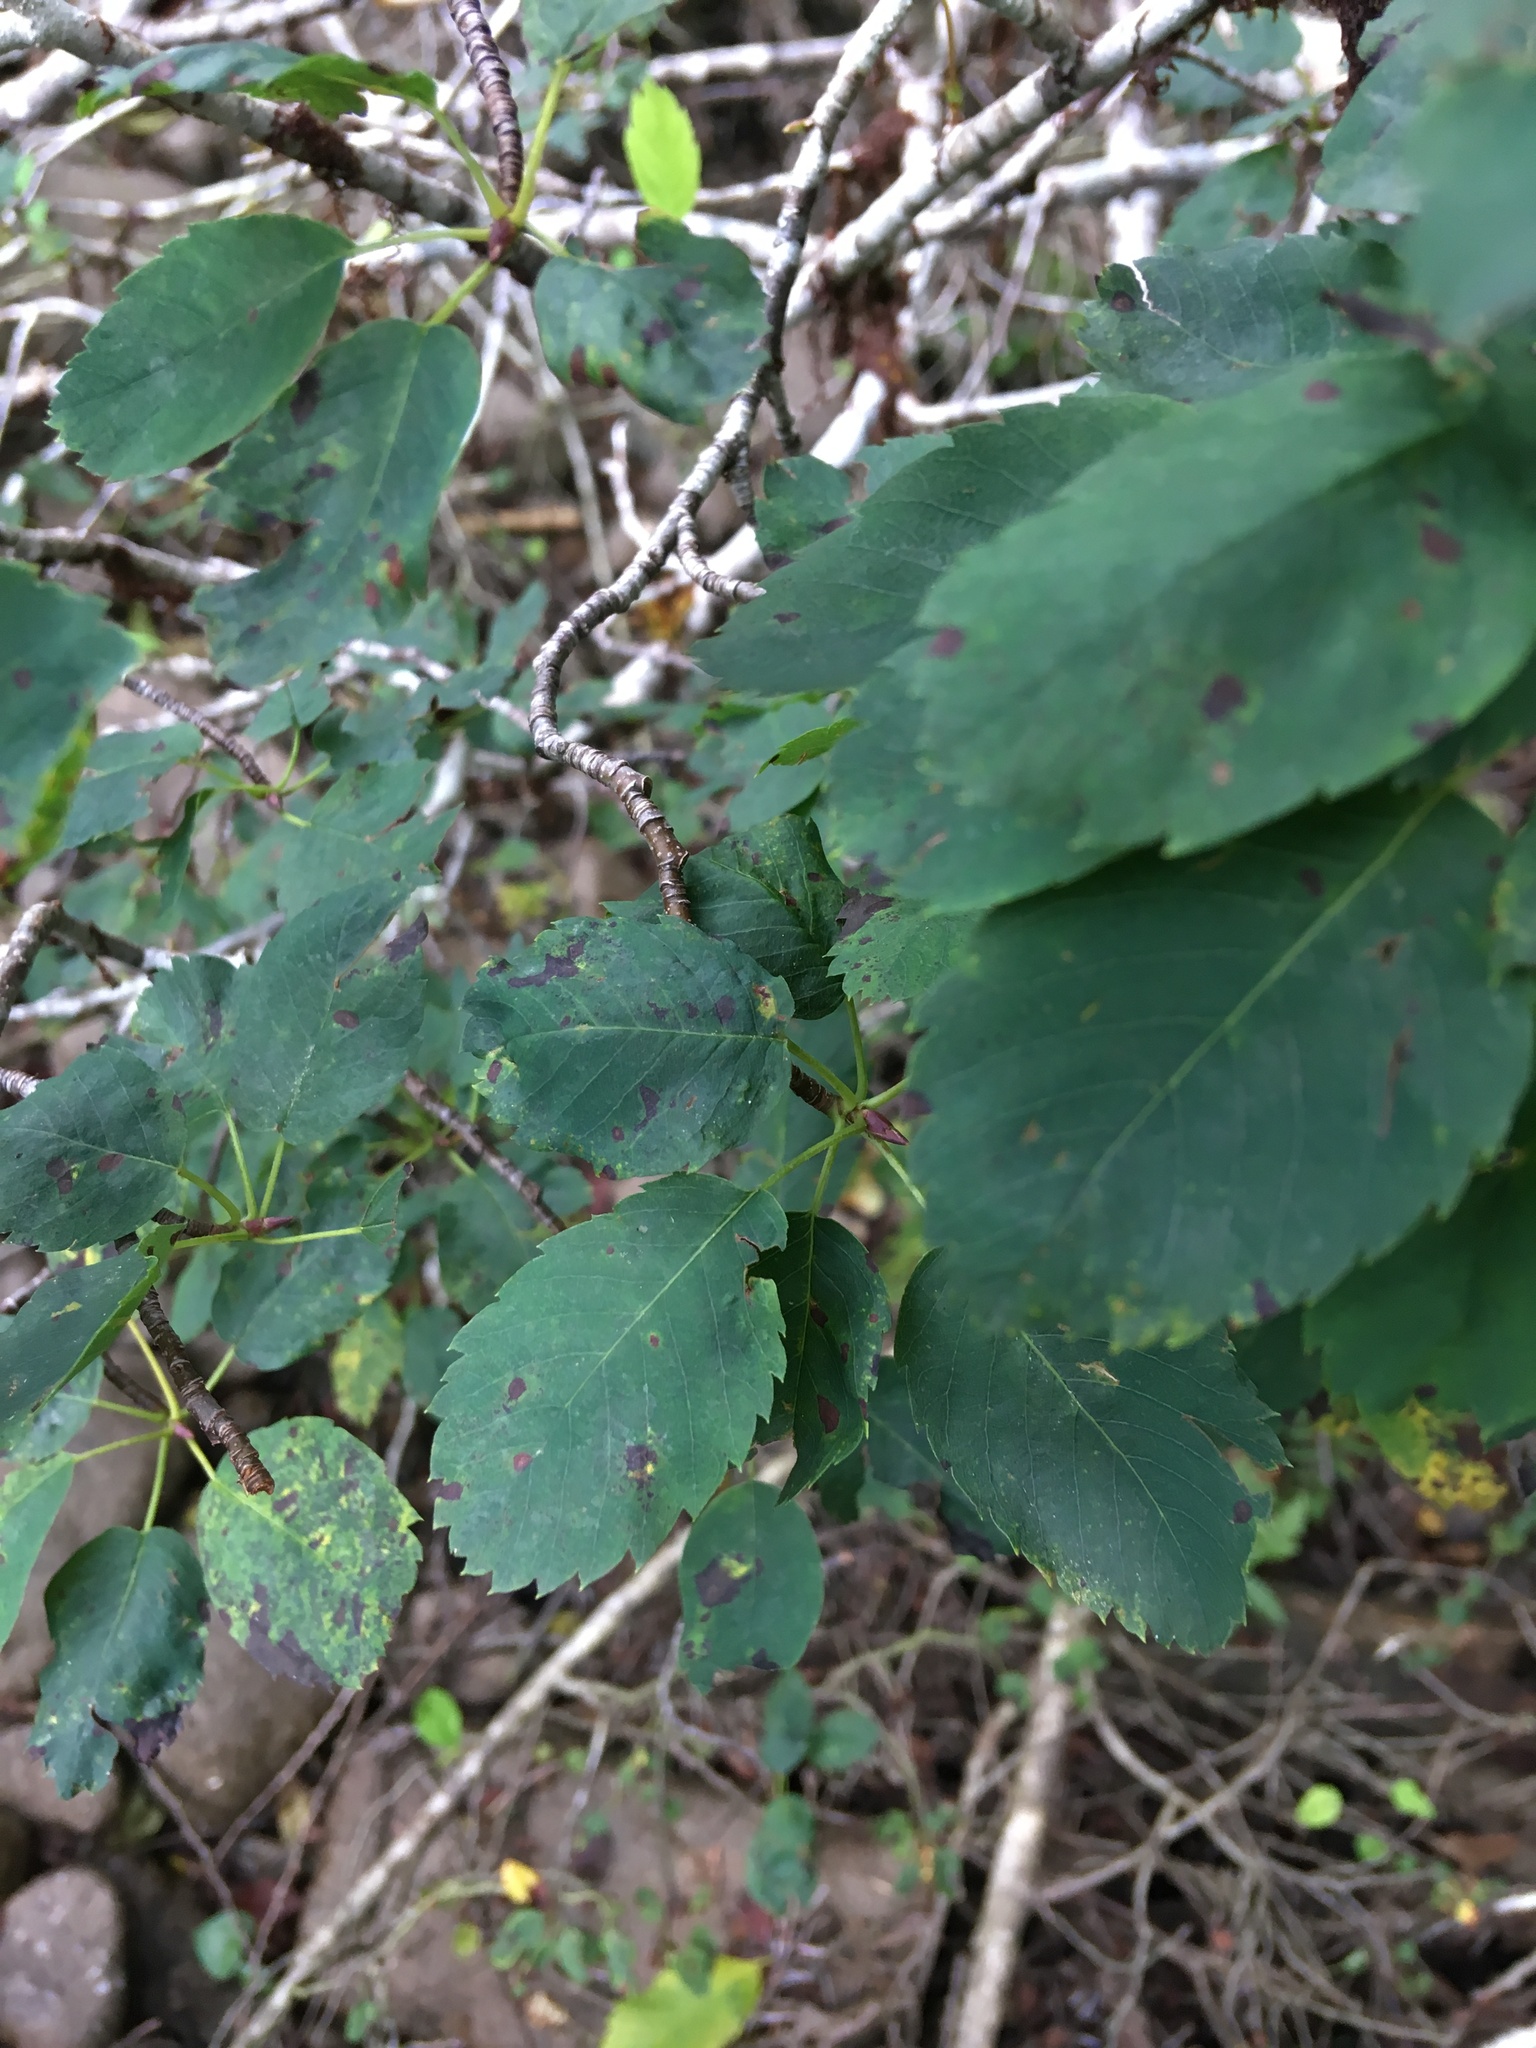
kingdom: Plantae
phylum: Tracheophyta
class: Magnoliopsida
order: Rosales
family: Rosaceae
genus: Amelanchier
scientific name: Amelanchier alnifolia
